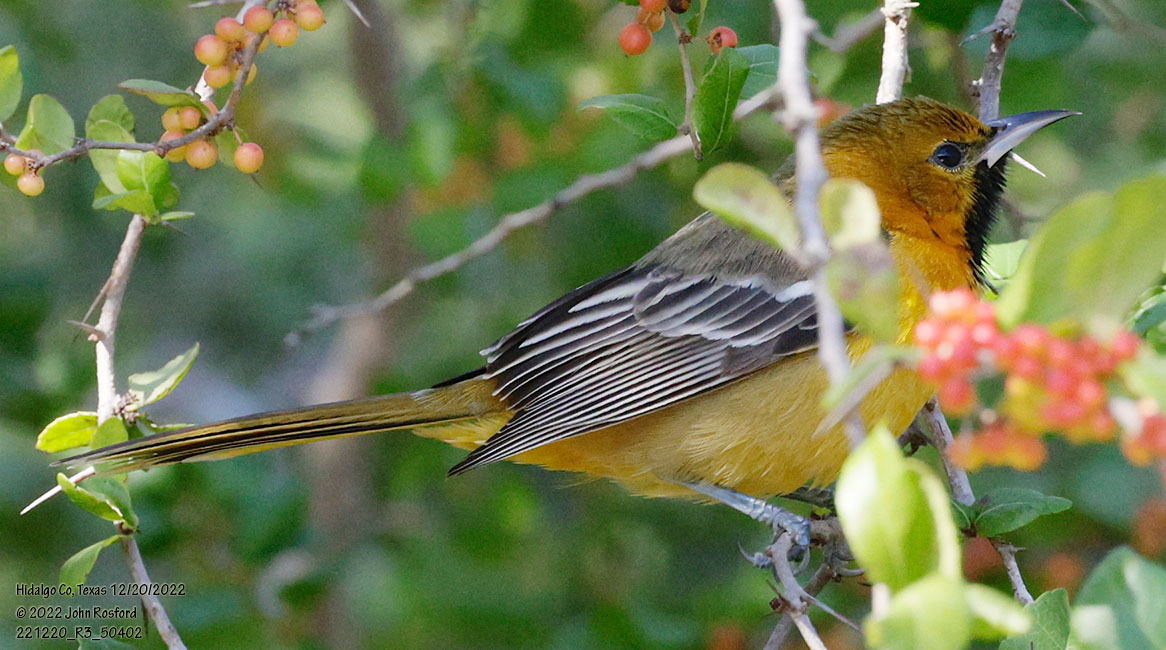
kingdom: Animalia
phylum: Chordata
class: Aves
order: Passeriformes
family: Icteridae
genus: Icterus
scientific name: Icterus cucullatus
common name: Hooded oriole
